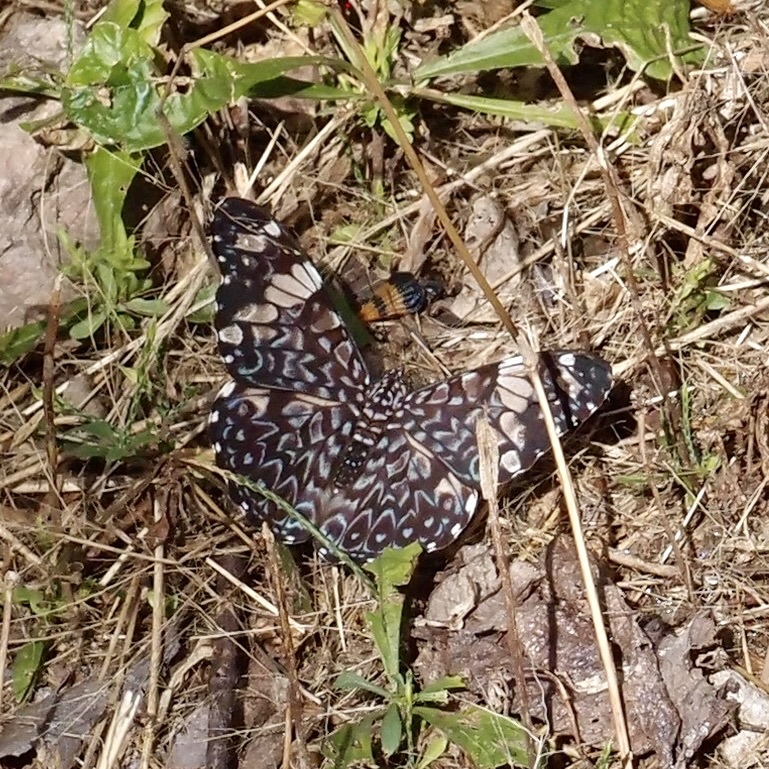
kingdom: Animalia
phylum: Arthropoda
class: Insecta
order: Lepidoptera
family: Nymphalidae
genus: Hamadryas
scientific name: Hamadryas amphinome
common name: Red cracker
